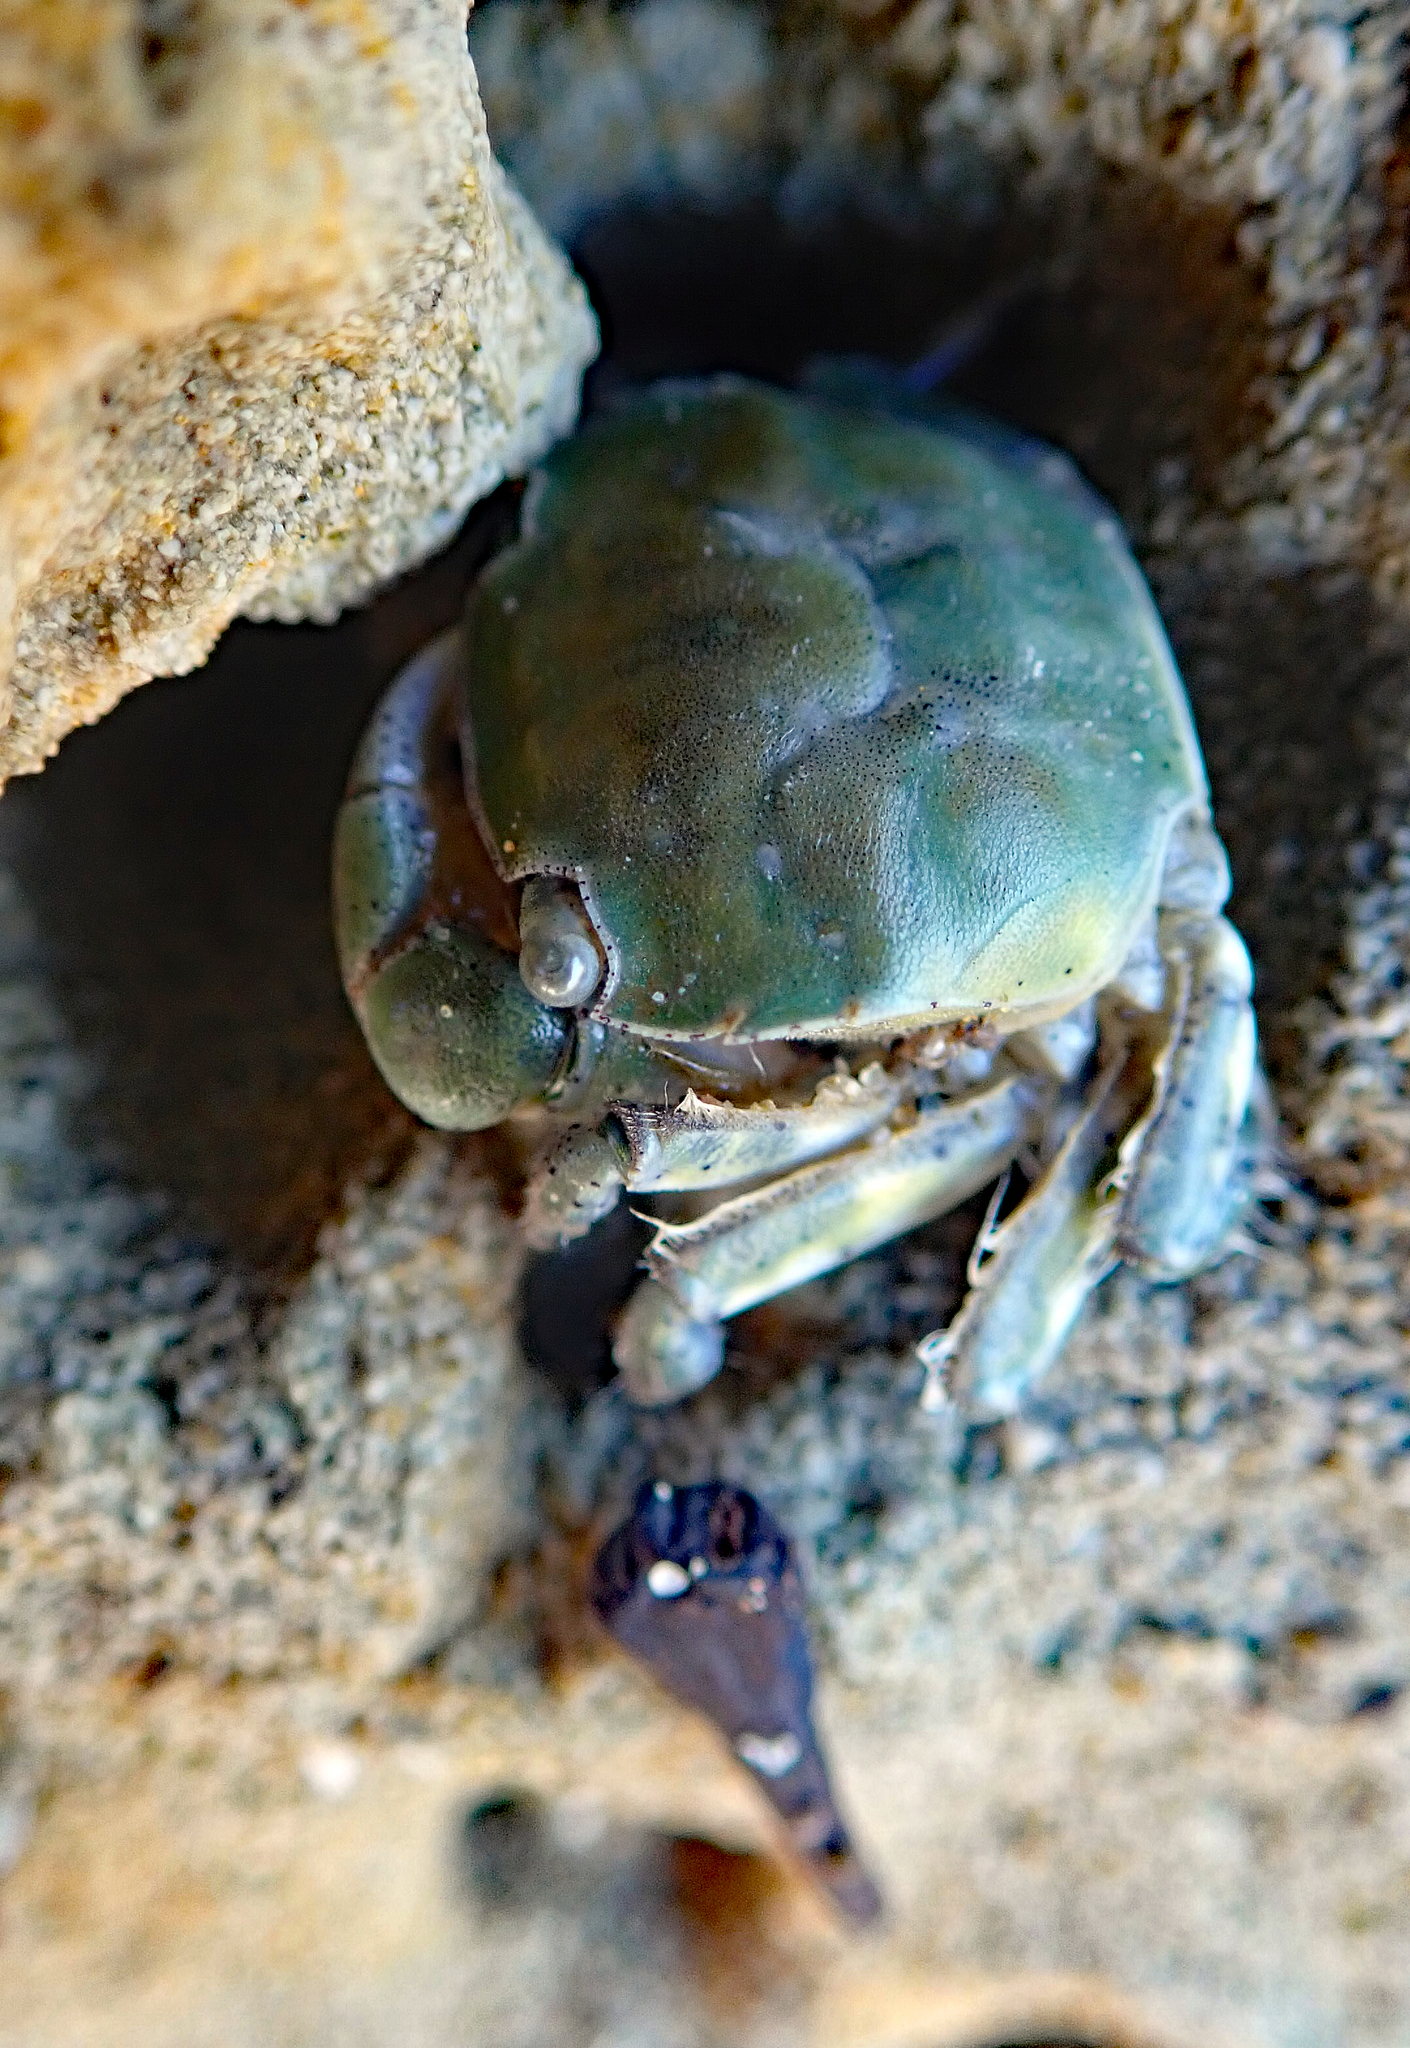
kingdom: Animalia
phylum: Arthropoda
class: Malacostraca
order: Decapoda
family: Varunidae
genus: Hemigrapsus
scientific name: Hemigrapsus crenulatus
